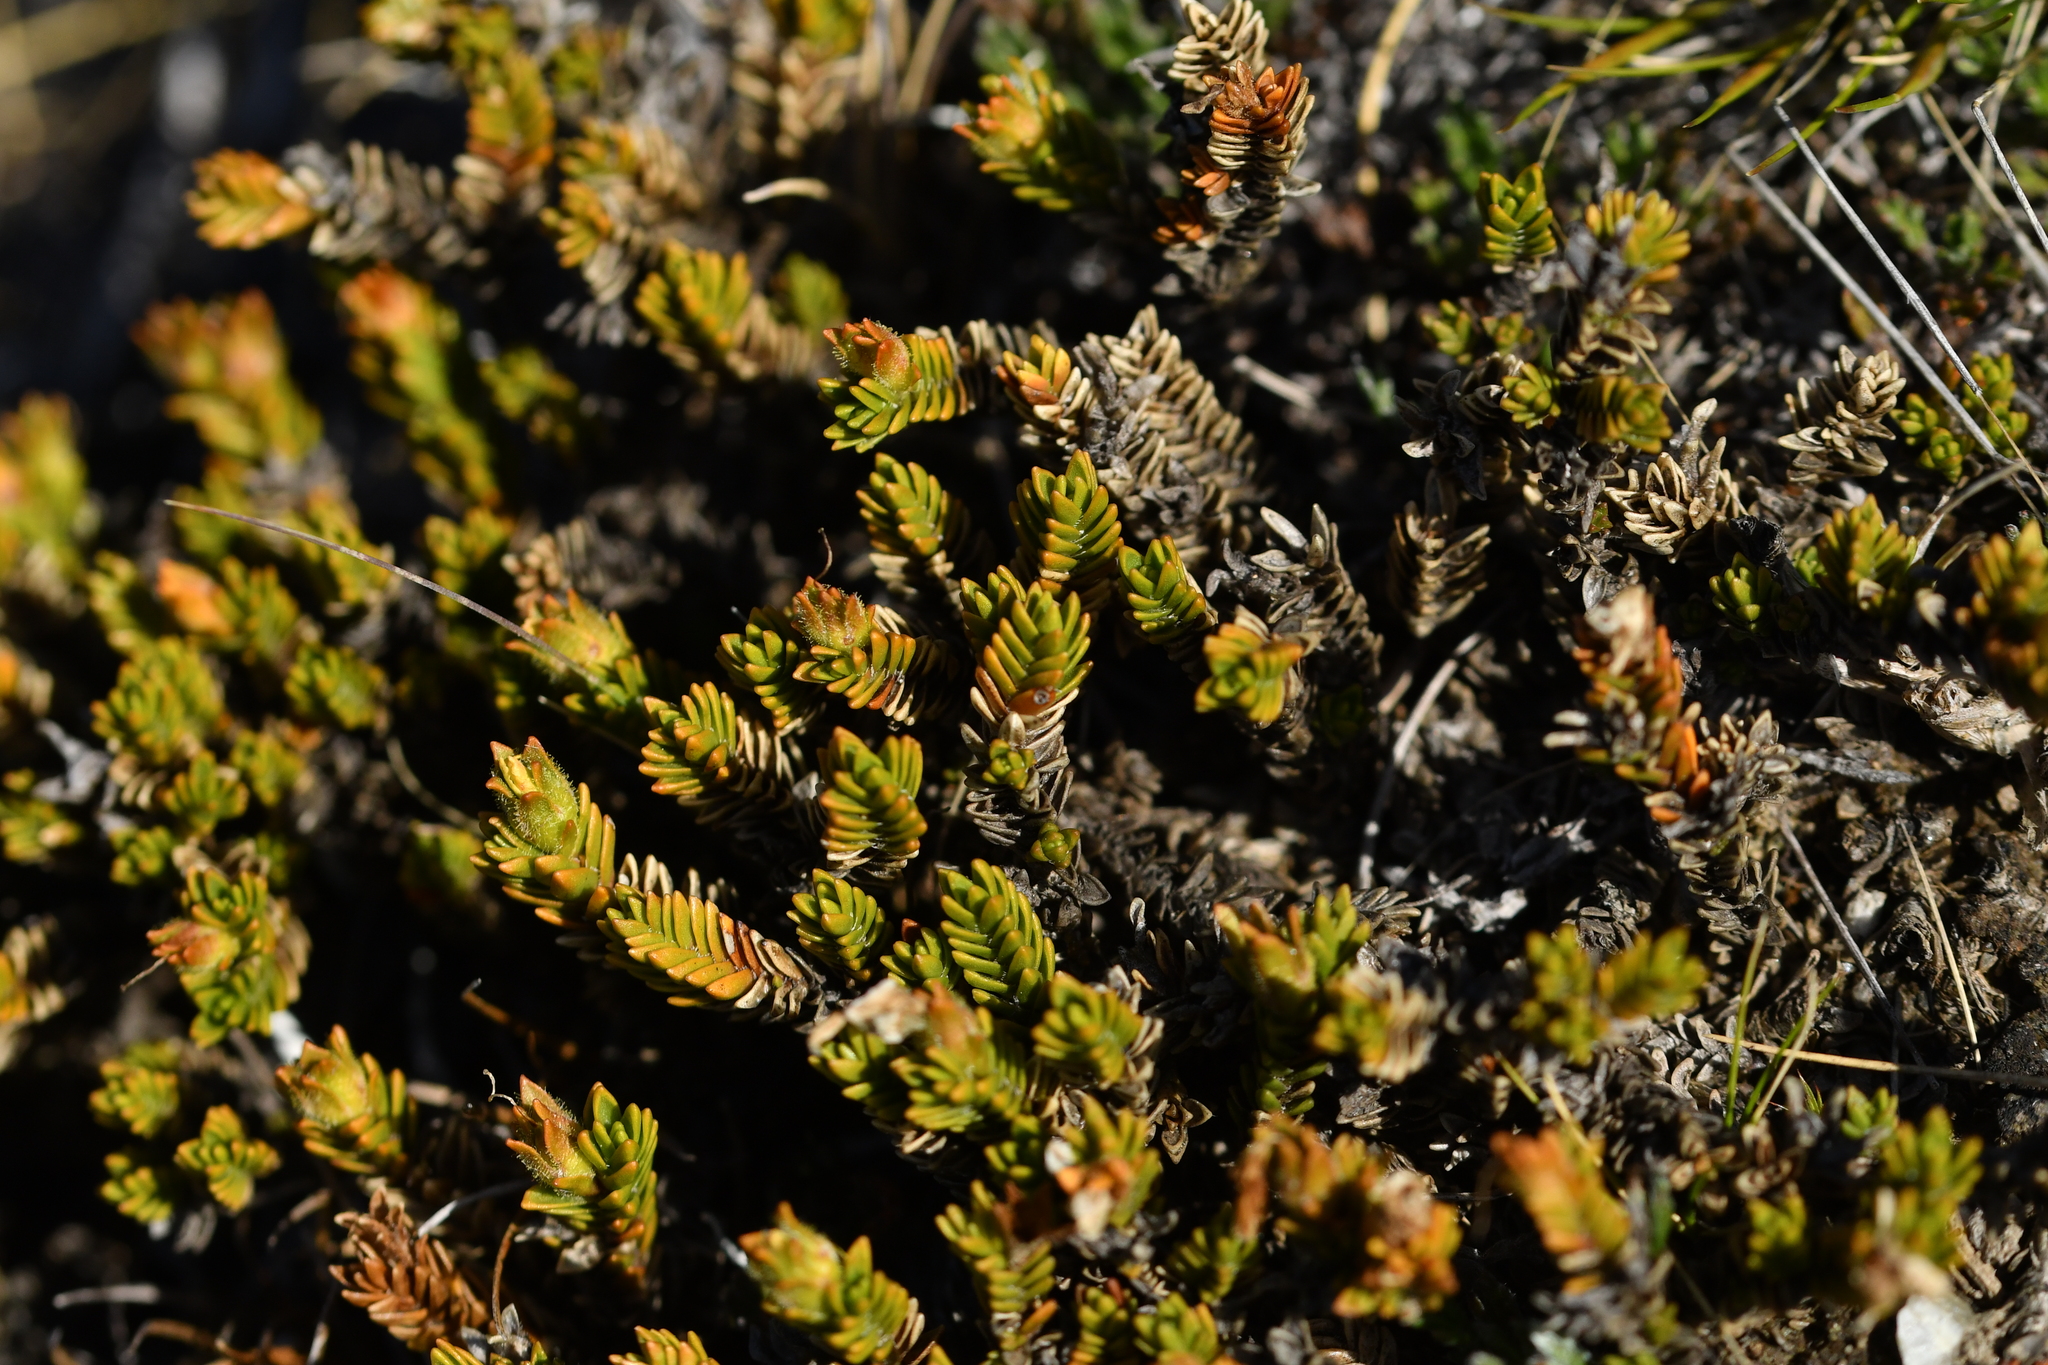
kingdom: Plantae
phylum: Tracheophyta
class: Magnoliopsida
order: Lamiales
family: Plantaginaceae
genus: Veronica
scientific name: Veronica densifolia
